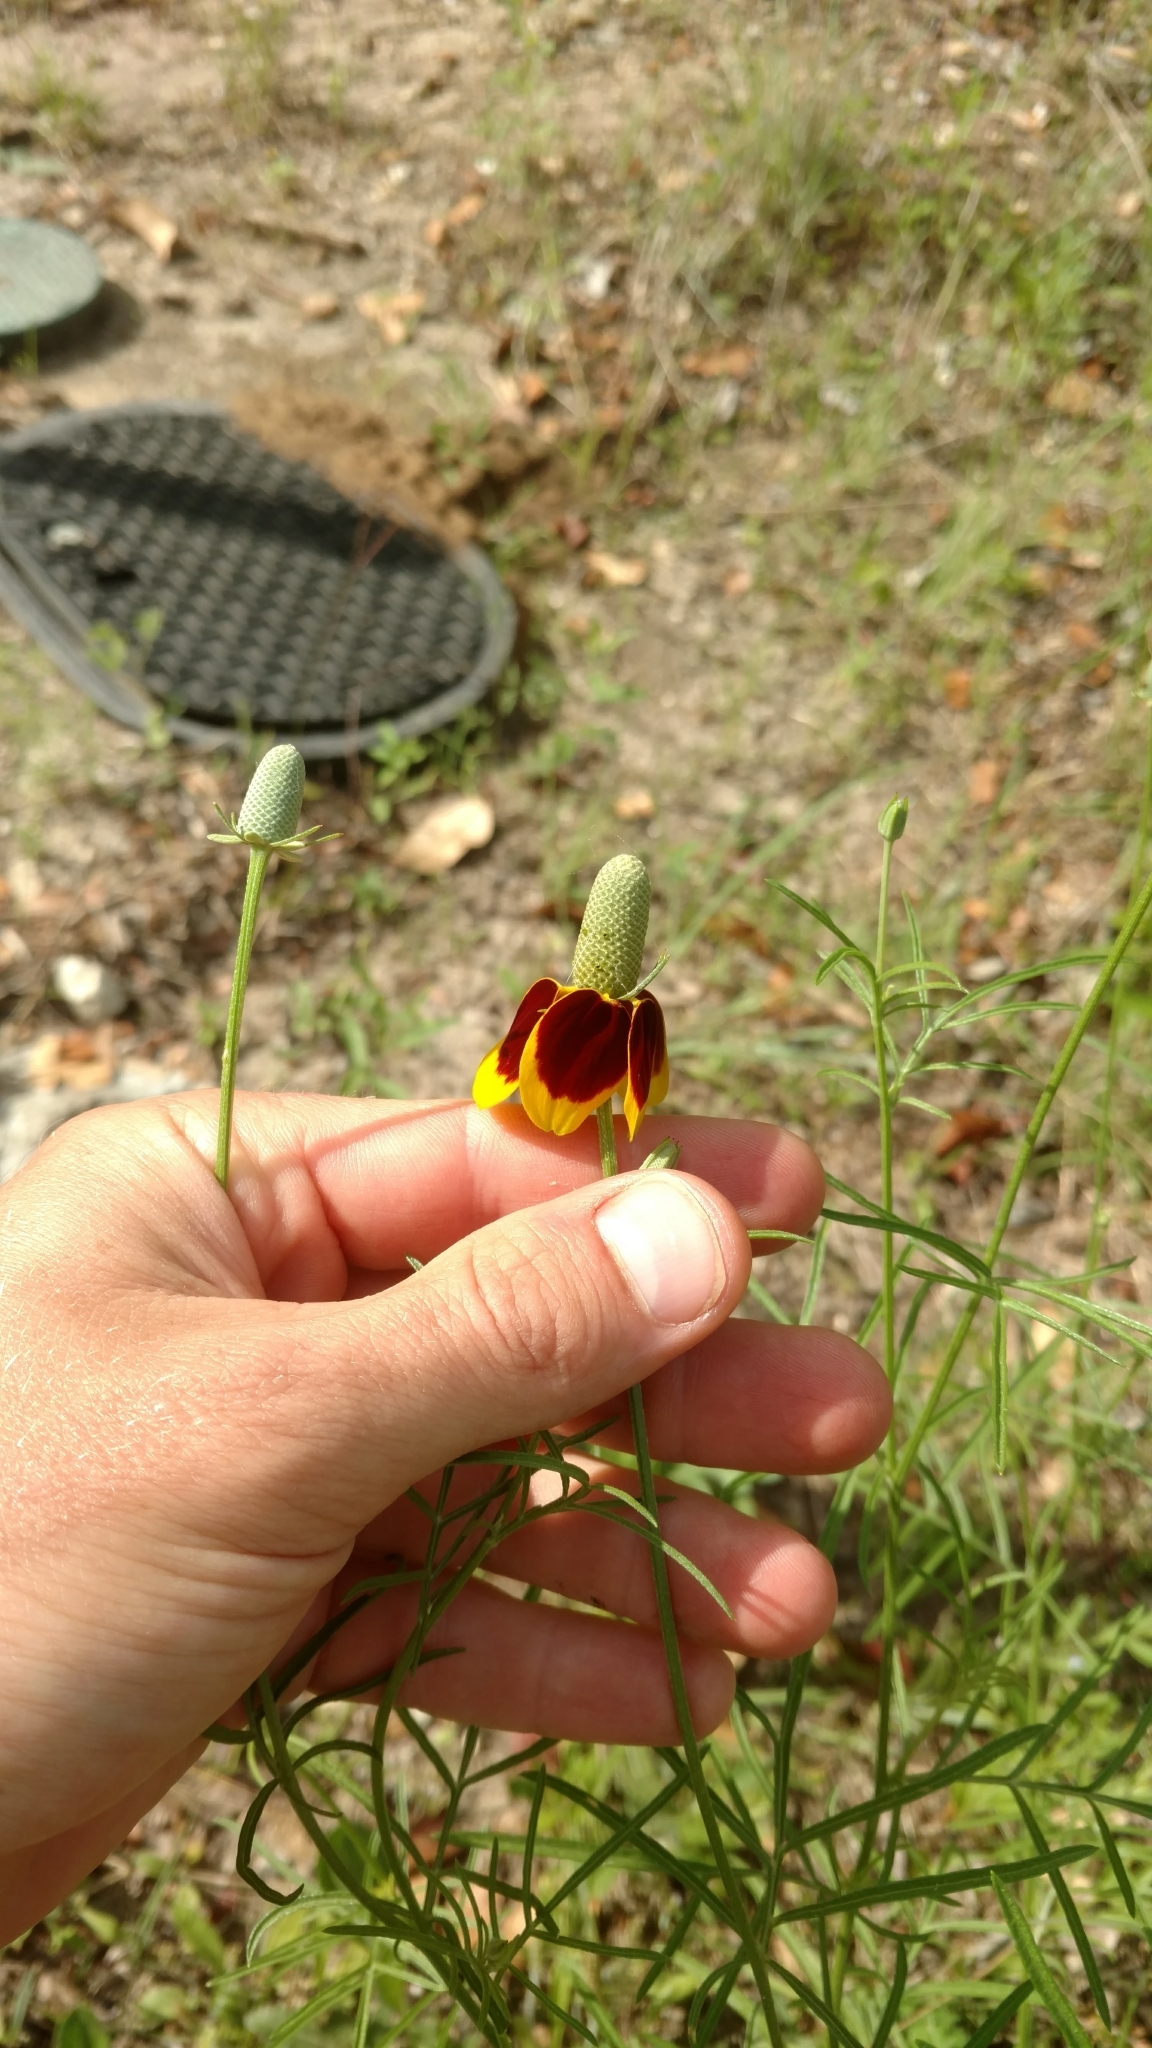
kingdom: Plantae
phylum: Tracheophyta
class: Magnoliopsida
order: Asterales
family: Asteraceae
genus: Ratibida
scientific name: Ratibida columnifera
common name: Prairie coneflower
